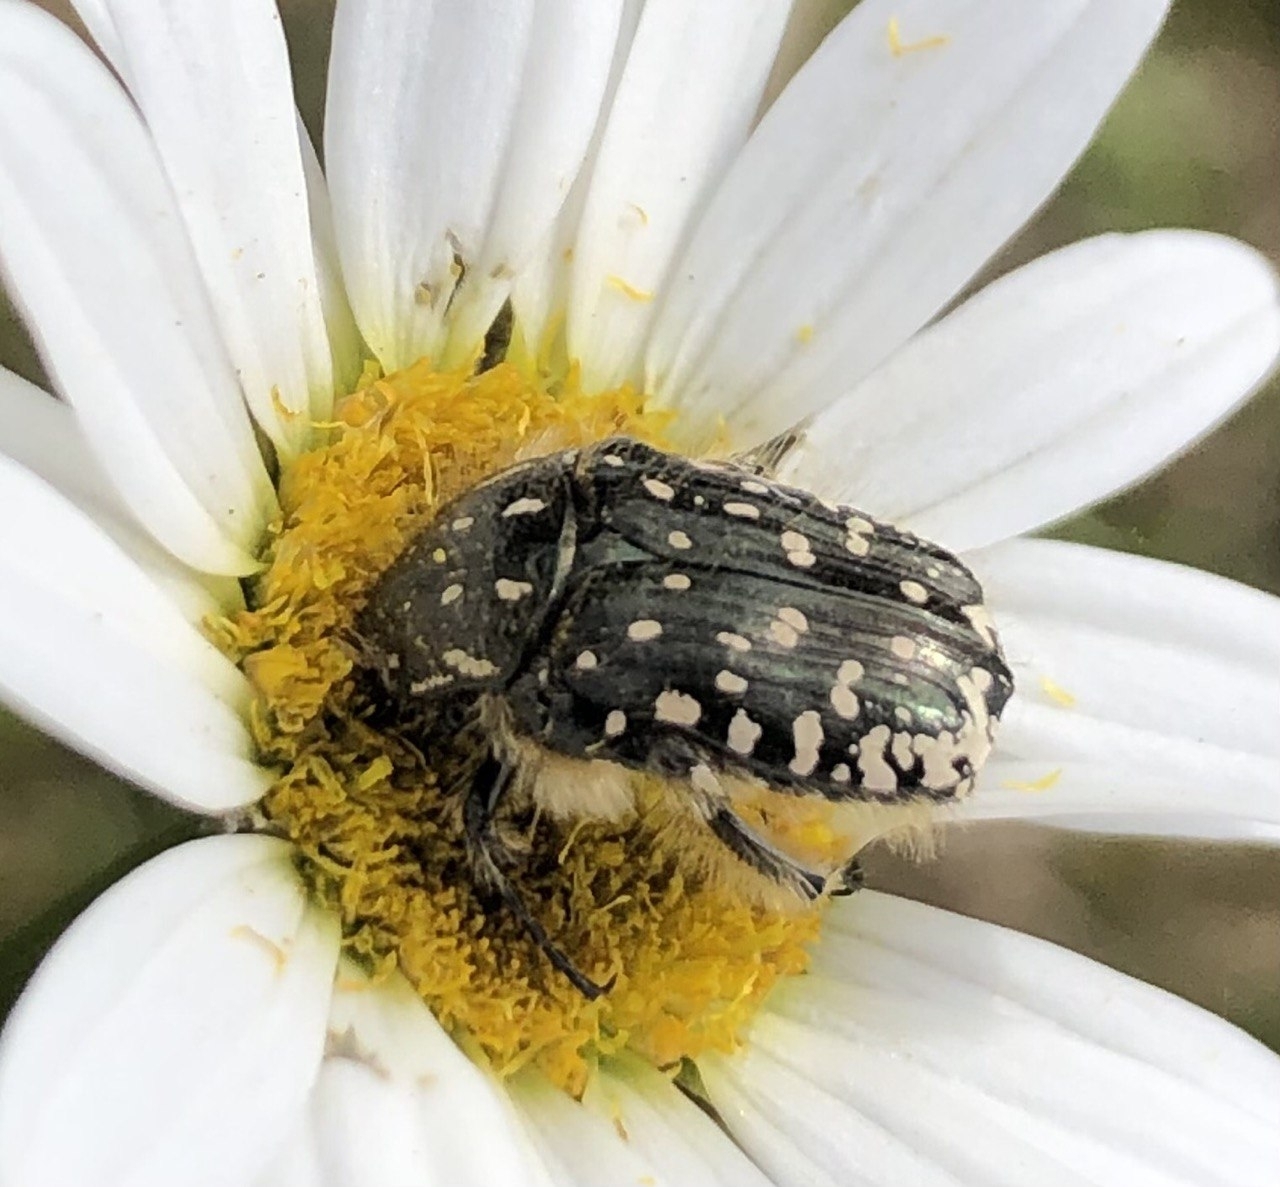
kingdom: Animalia
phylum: Arthropoda
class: Insecta
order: Coleoptera
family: Scarabaeidae
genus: Oxythyrea
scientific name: Oxythyrea funesta
